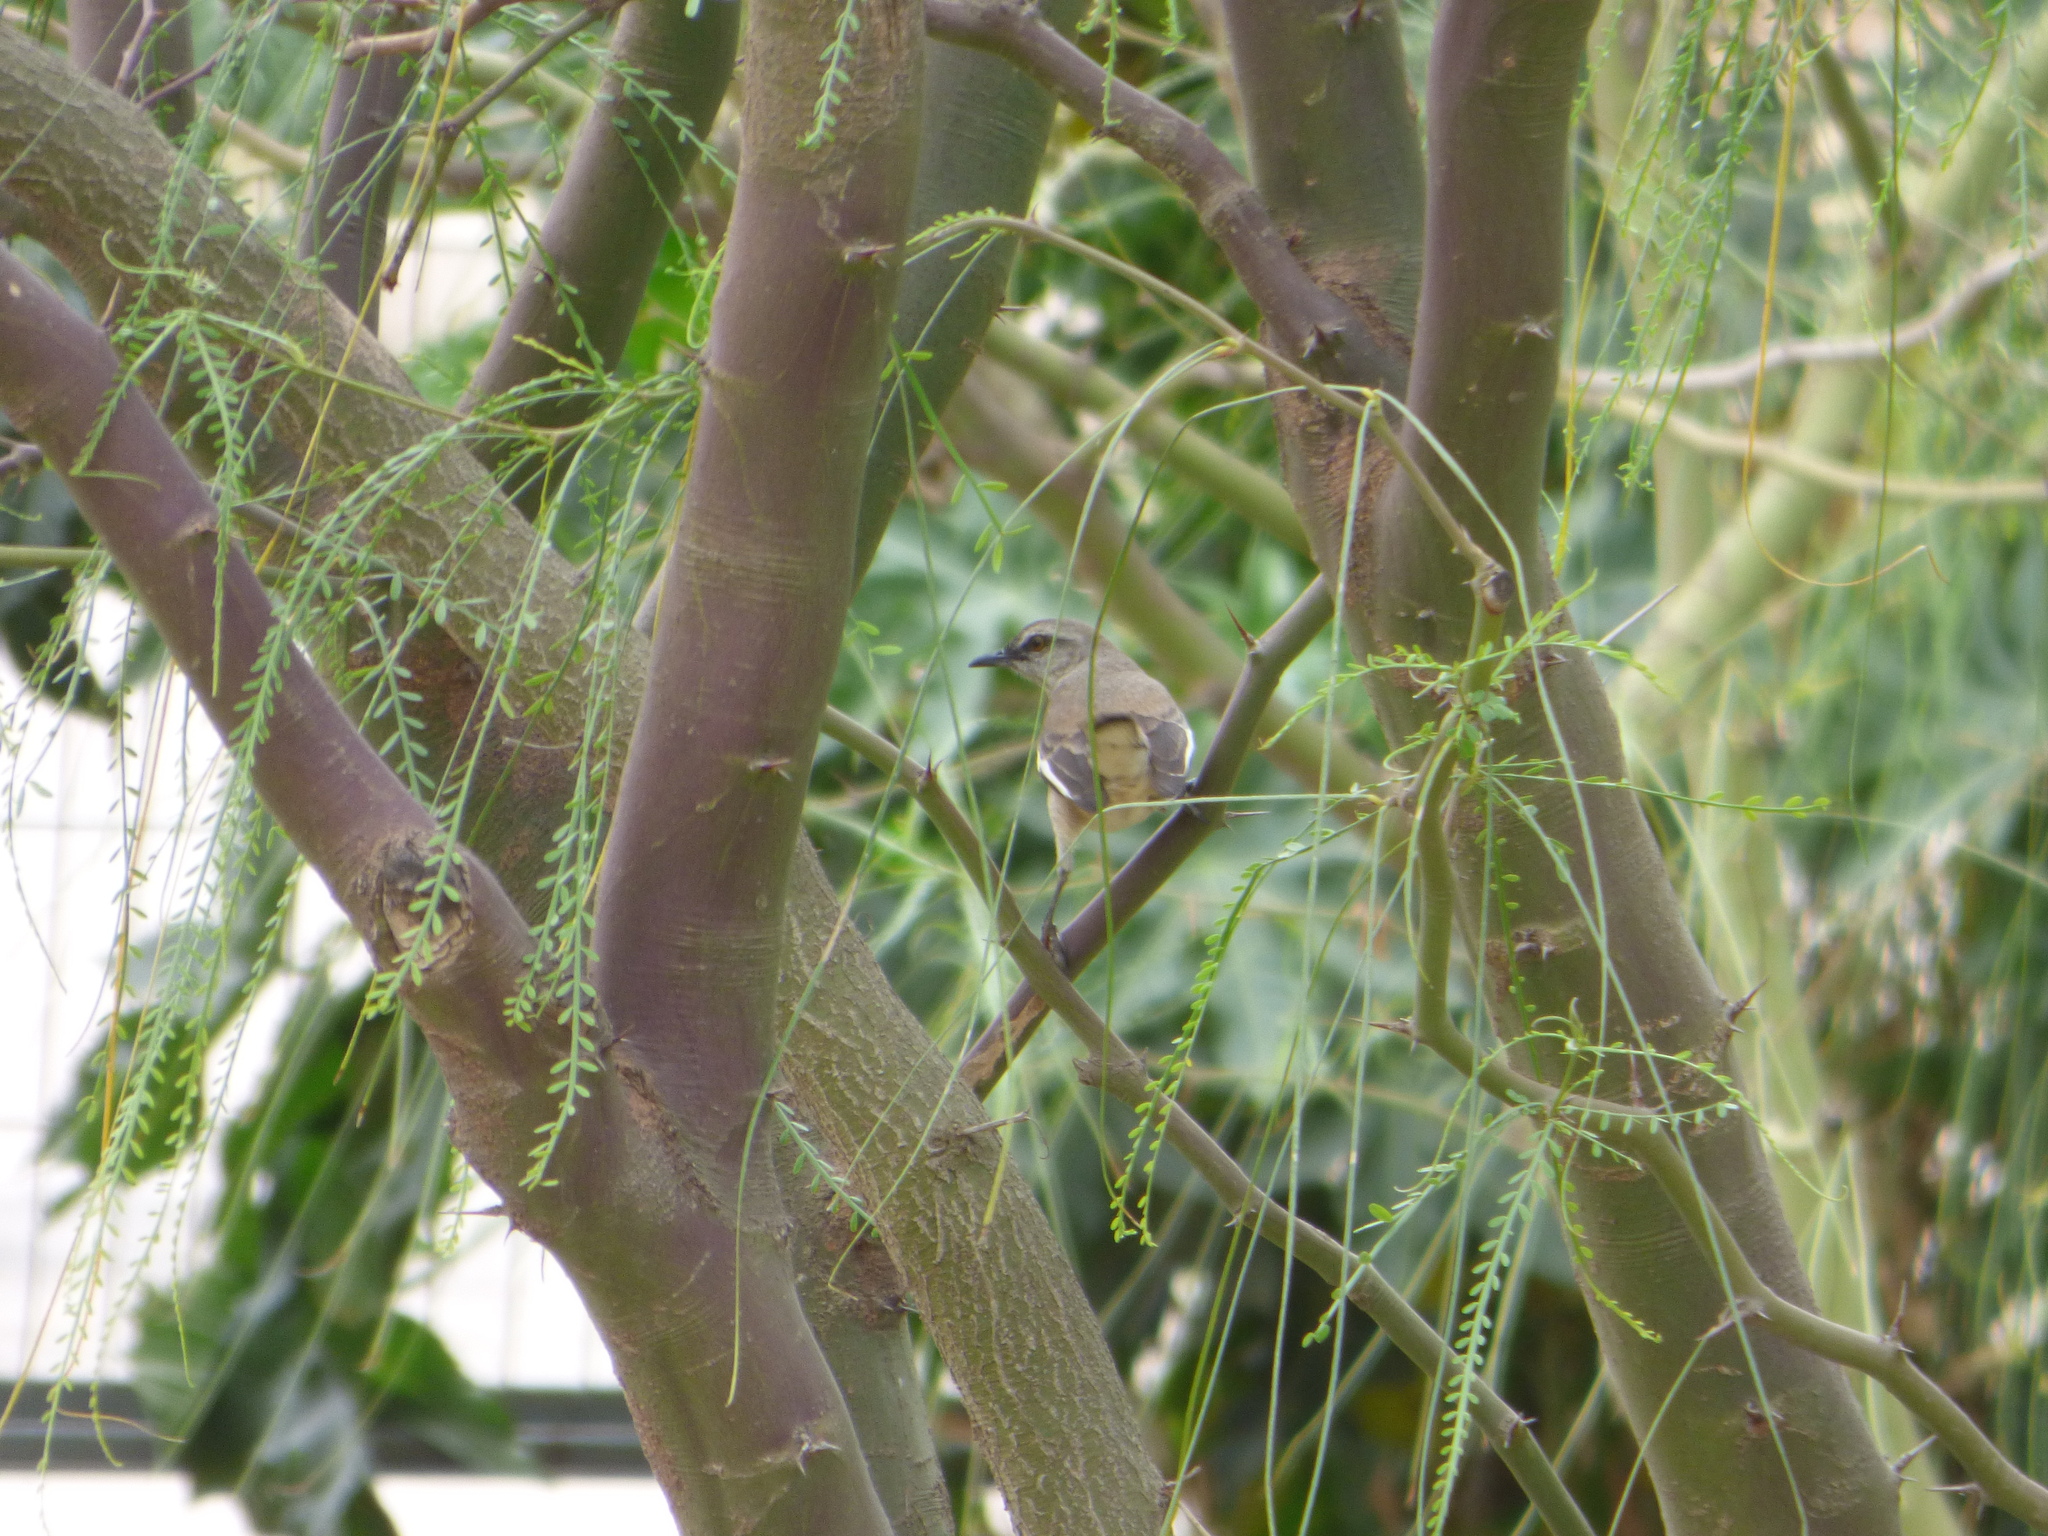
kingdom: Animalia
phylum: Chordata
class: Aves
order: Passeriformes
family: Mimidae
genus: Mimus
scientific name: Mimus triurus
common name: White-banded mockingbird
